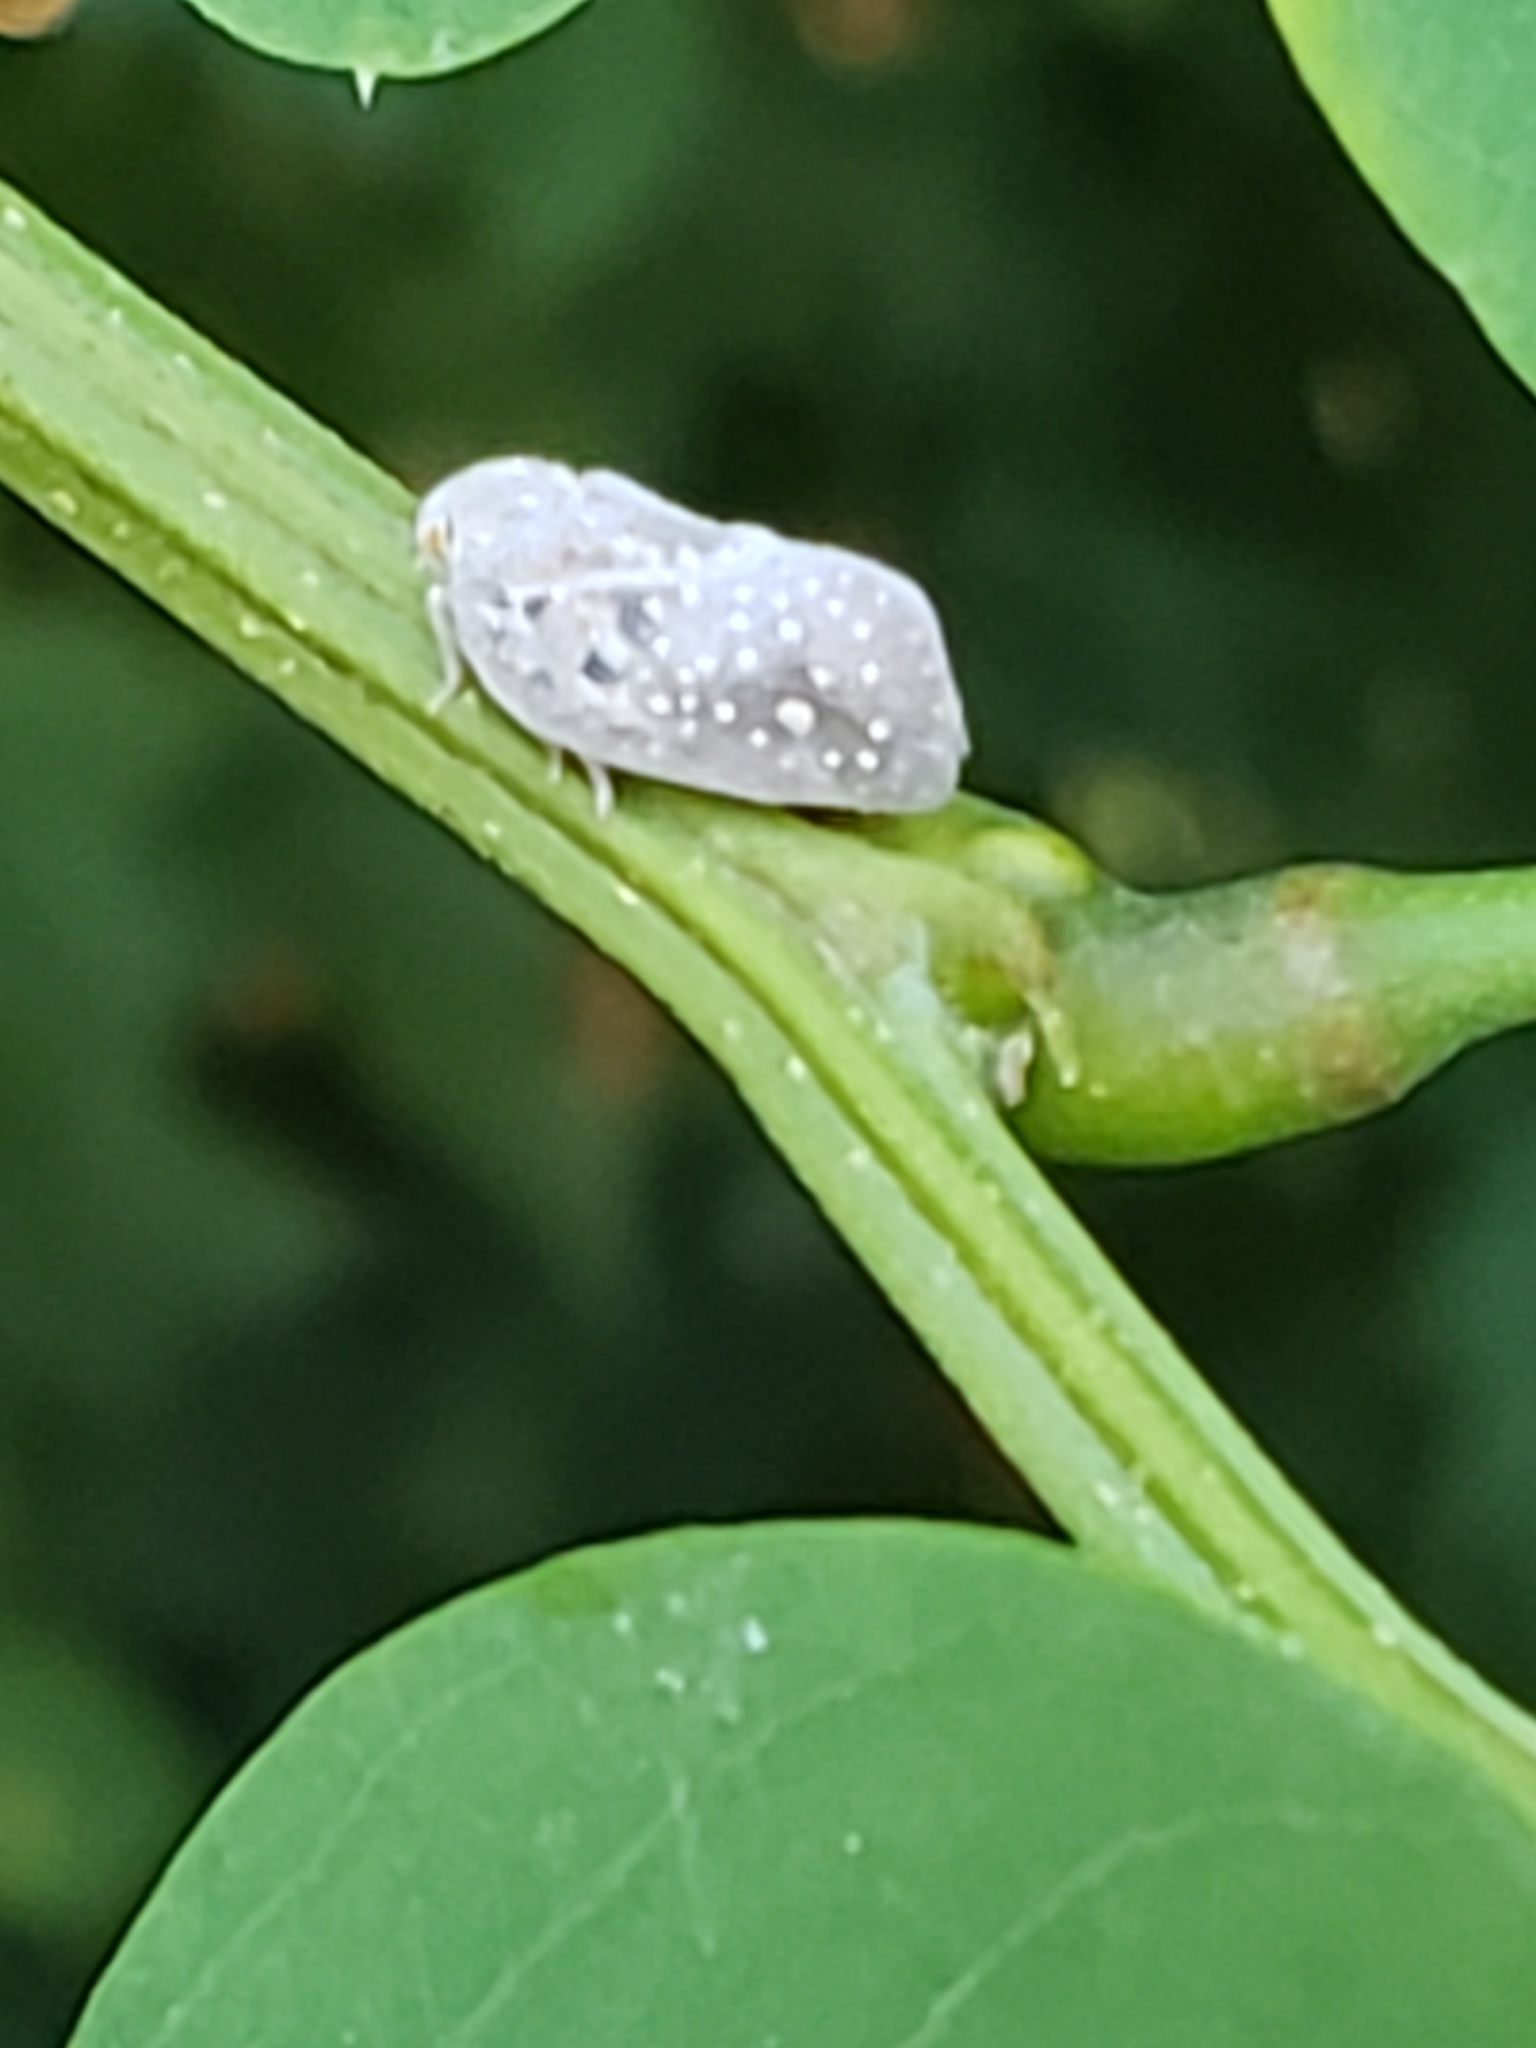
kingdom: Animalia
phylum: Arthropoda
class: Insecta
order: Hemiptera
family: Flatidae
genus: Metcalfa
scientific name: Metcalfa pruinosa
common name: Citrus flatid planthopper
